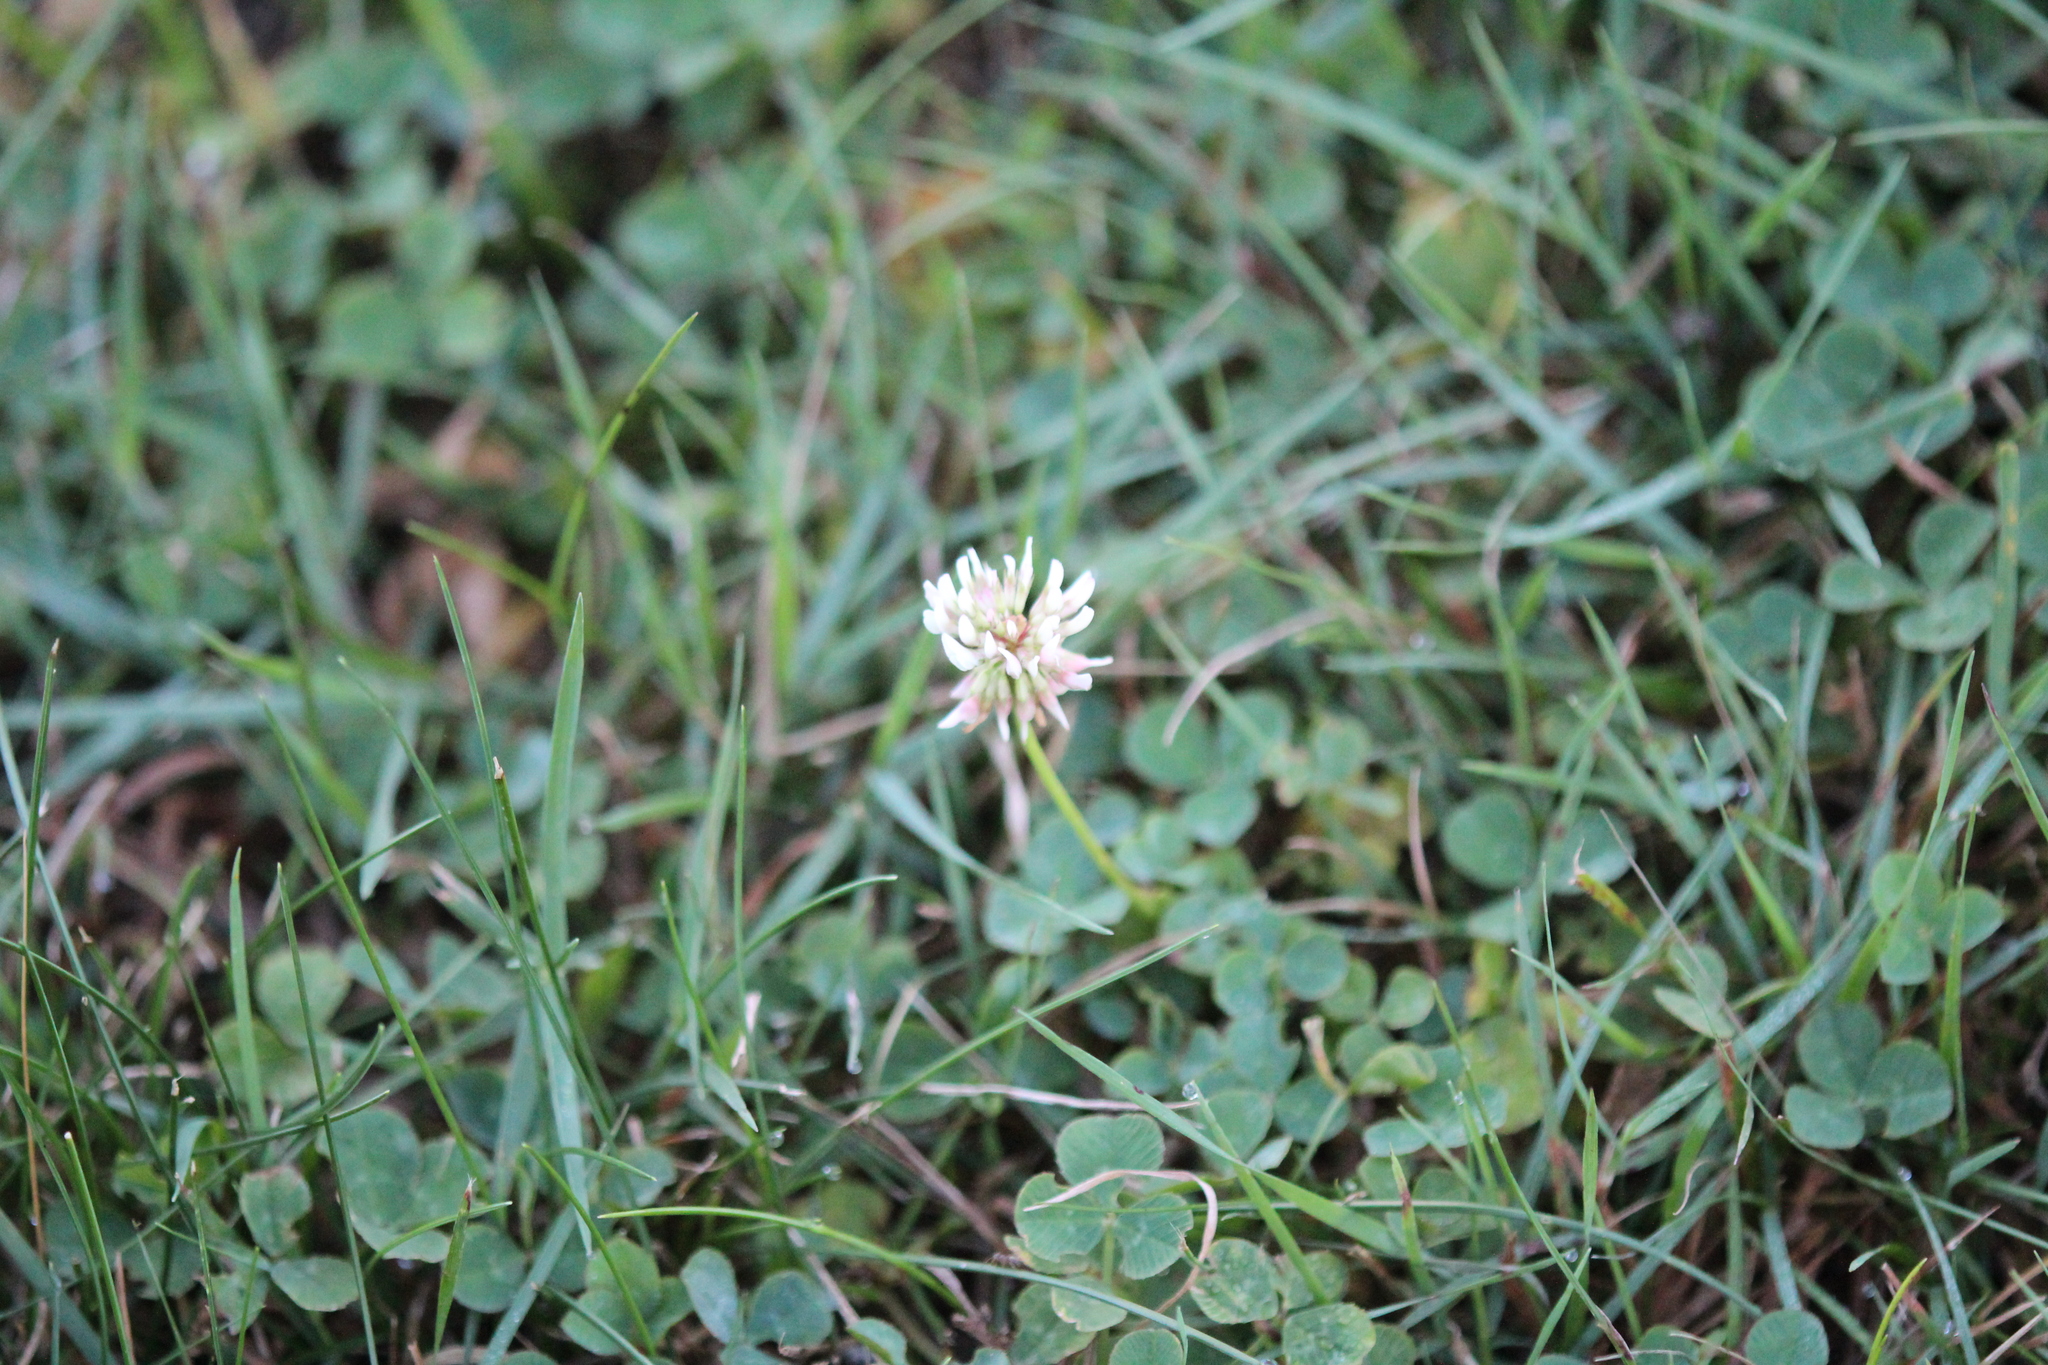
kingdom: Plantae
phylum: Tracheophyta
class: Magnoliopsida
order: Fabales
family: Fabaceae
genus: Trifolium
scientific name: Trifolium repens
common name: White clover
